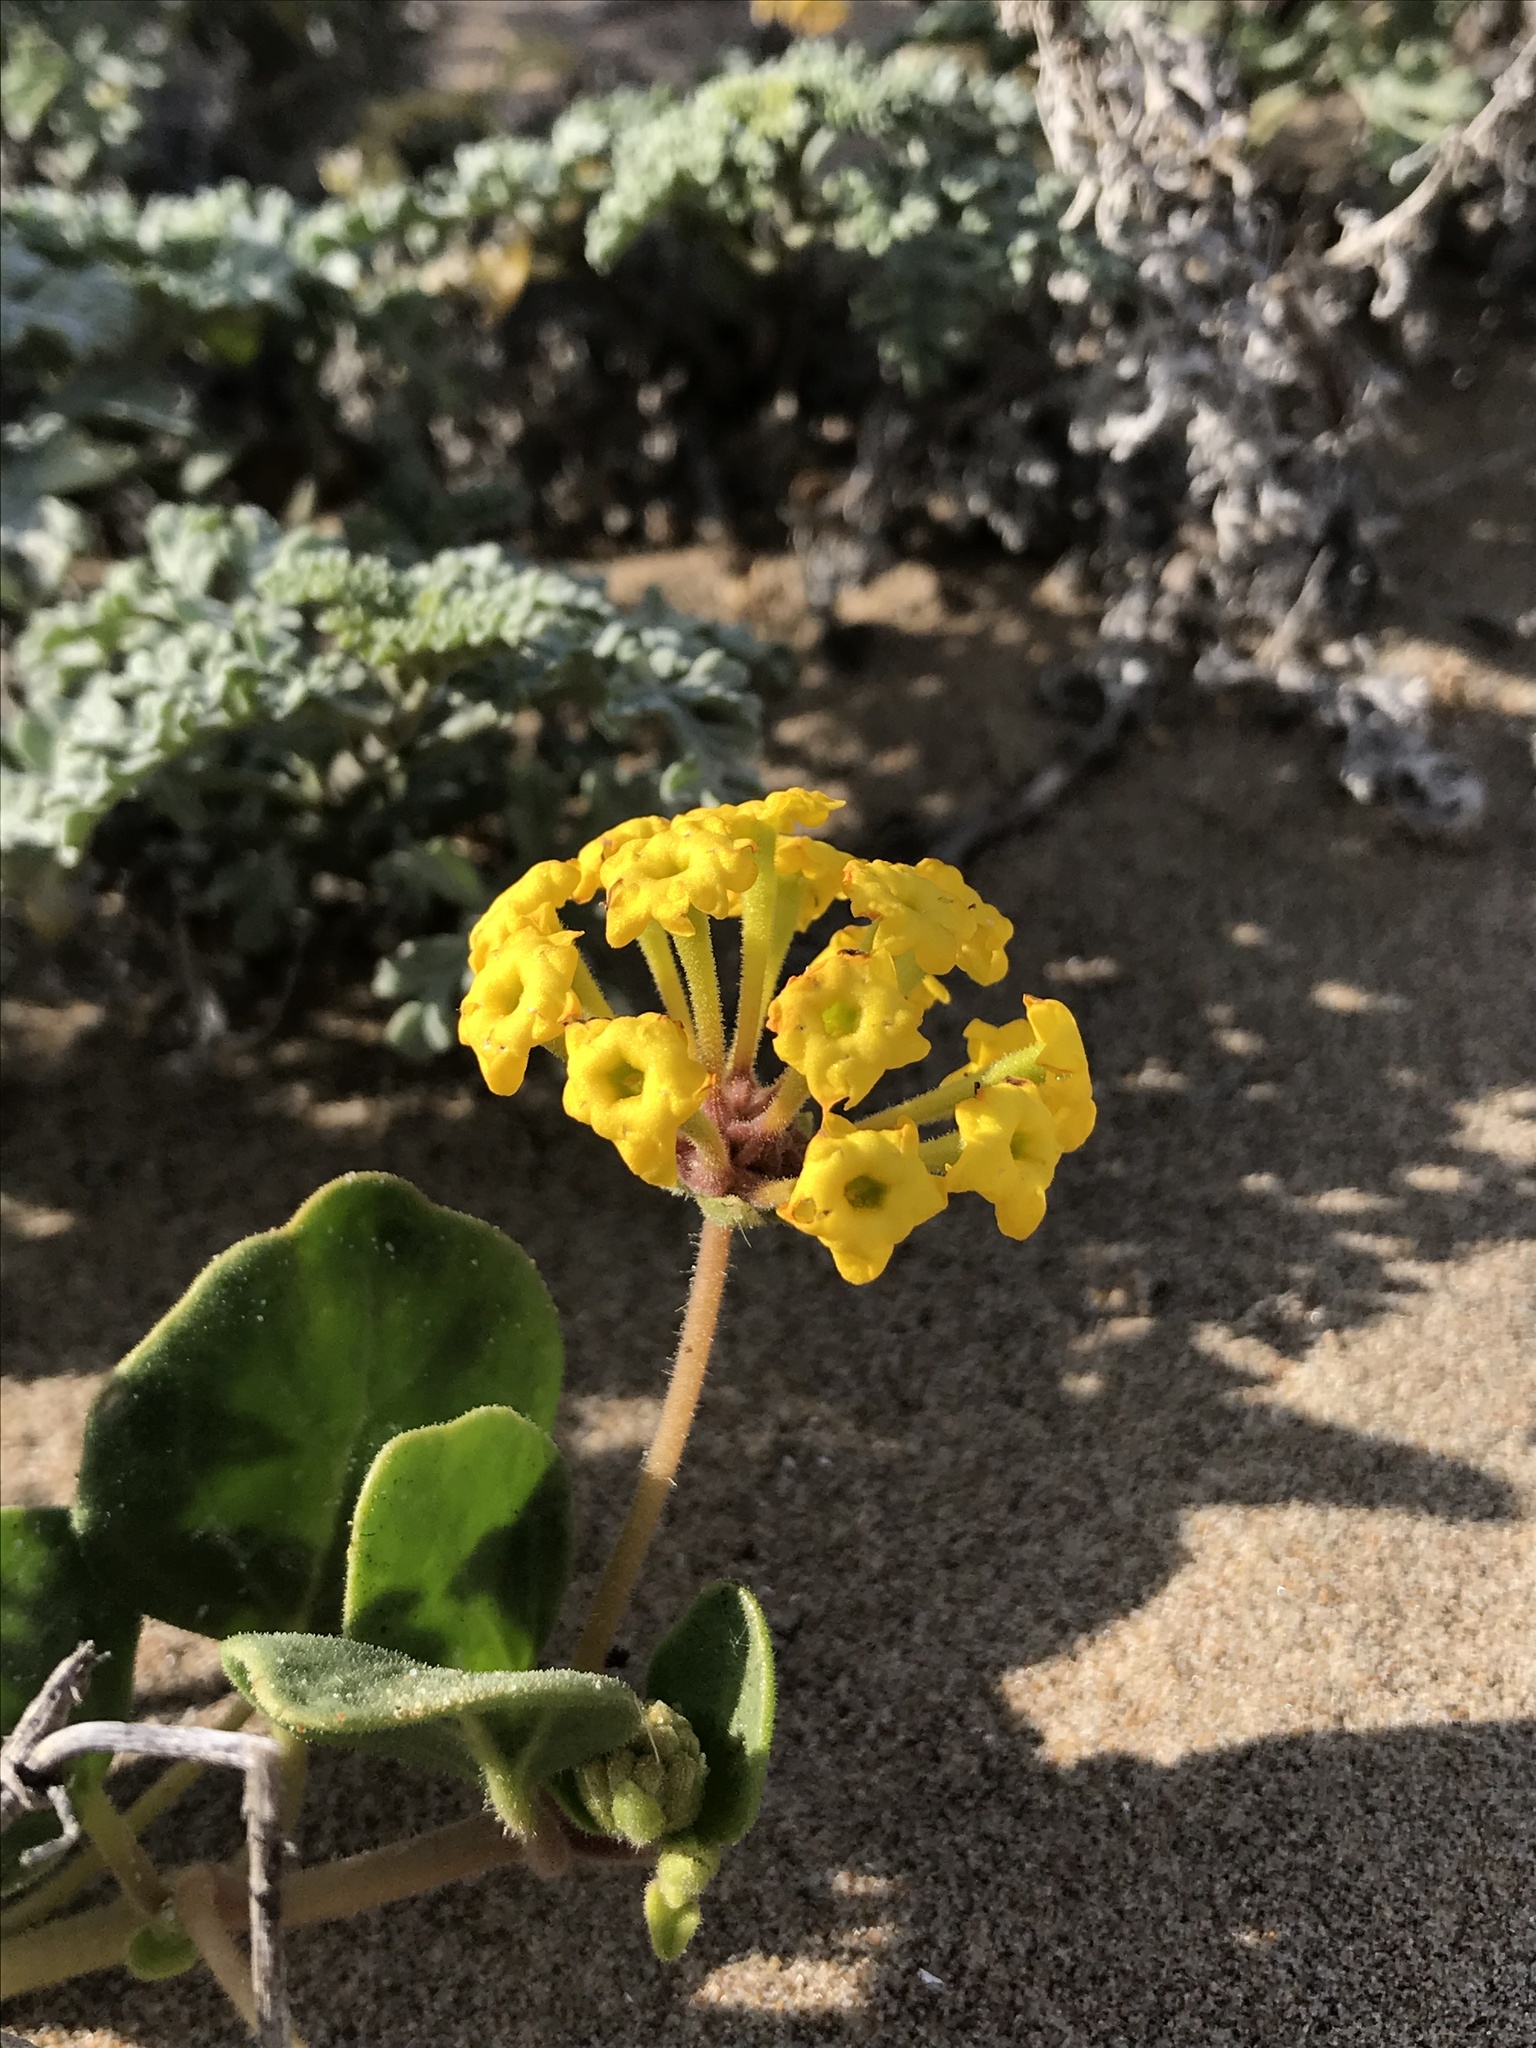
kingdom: Plantae
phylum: Tracheophyta
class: Magnoliopsida
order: Caryophyllales
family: Nyctaginaceae
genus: Abronia
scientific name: Abronia latifolia
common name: Yellow sand-verbena
